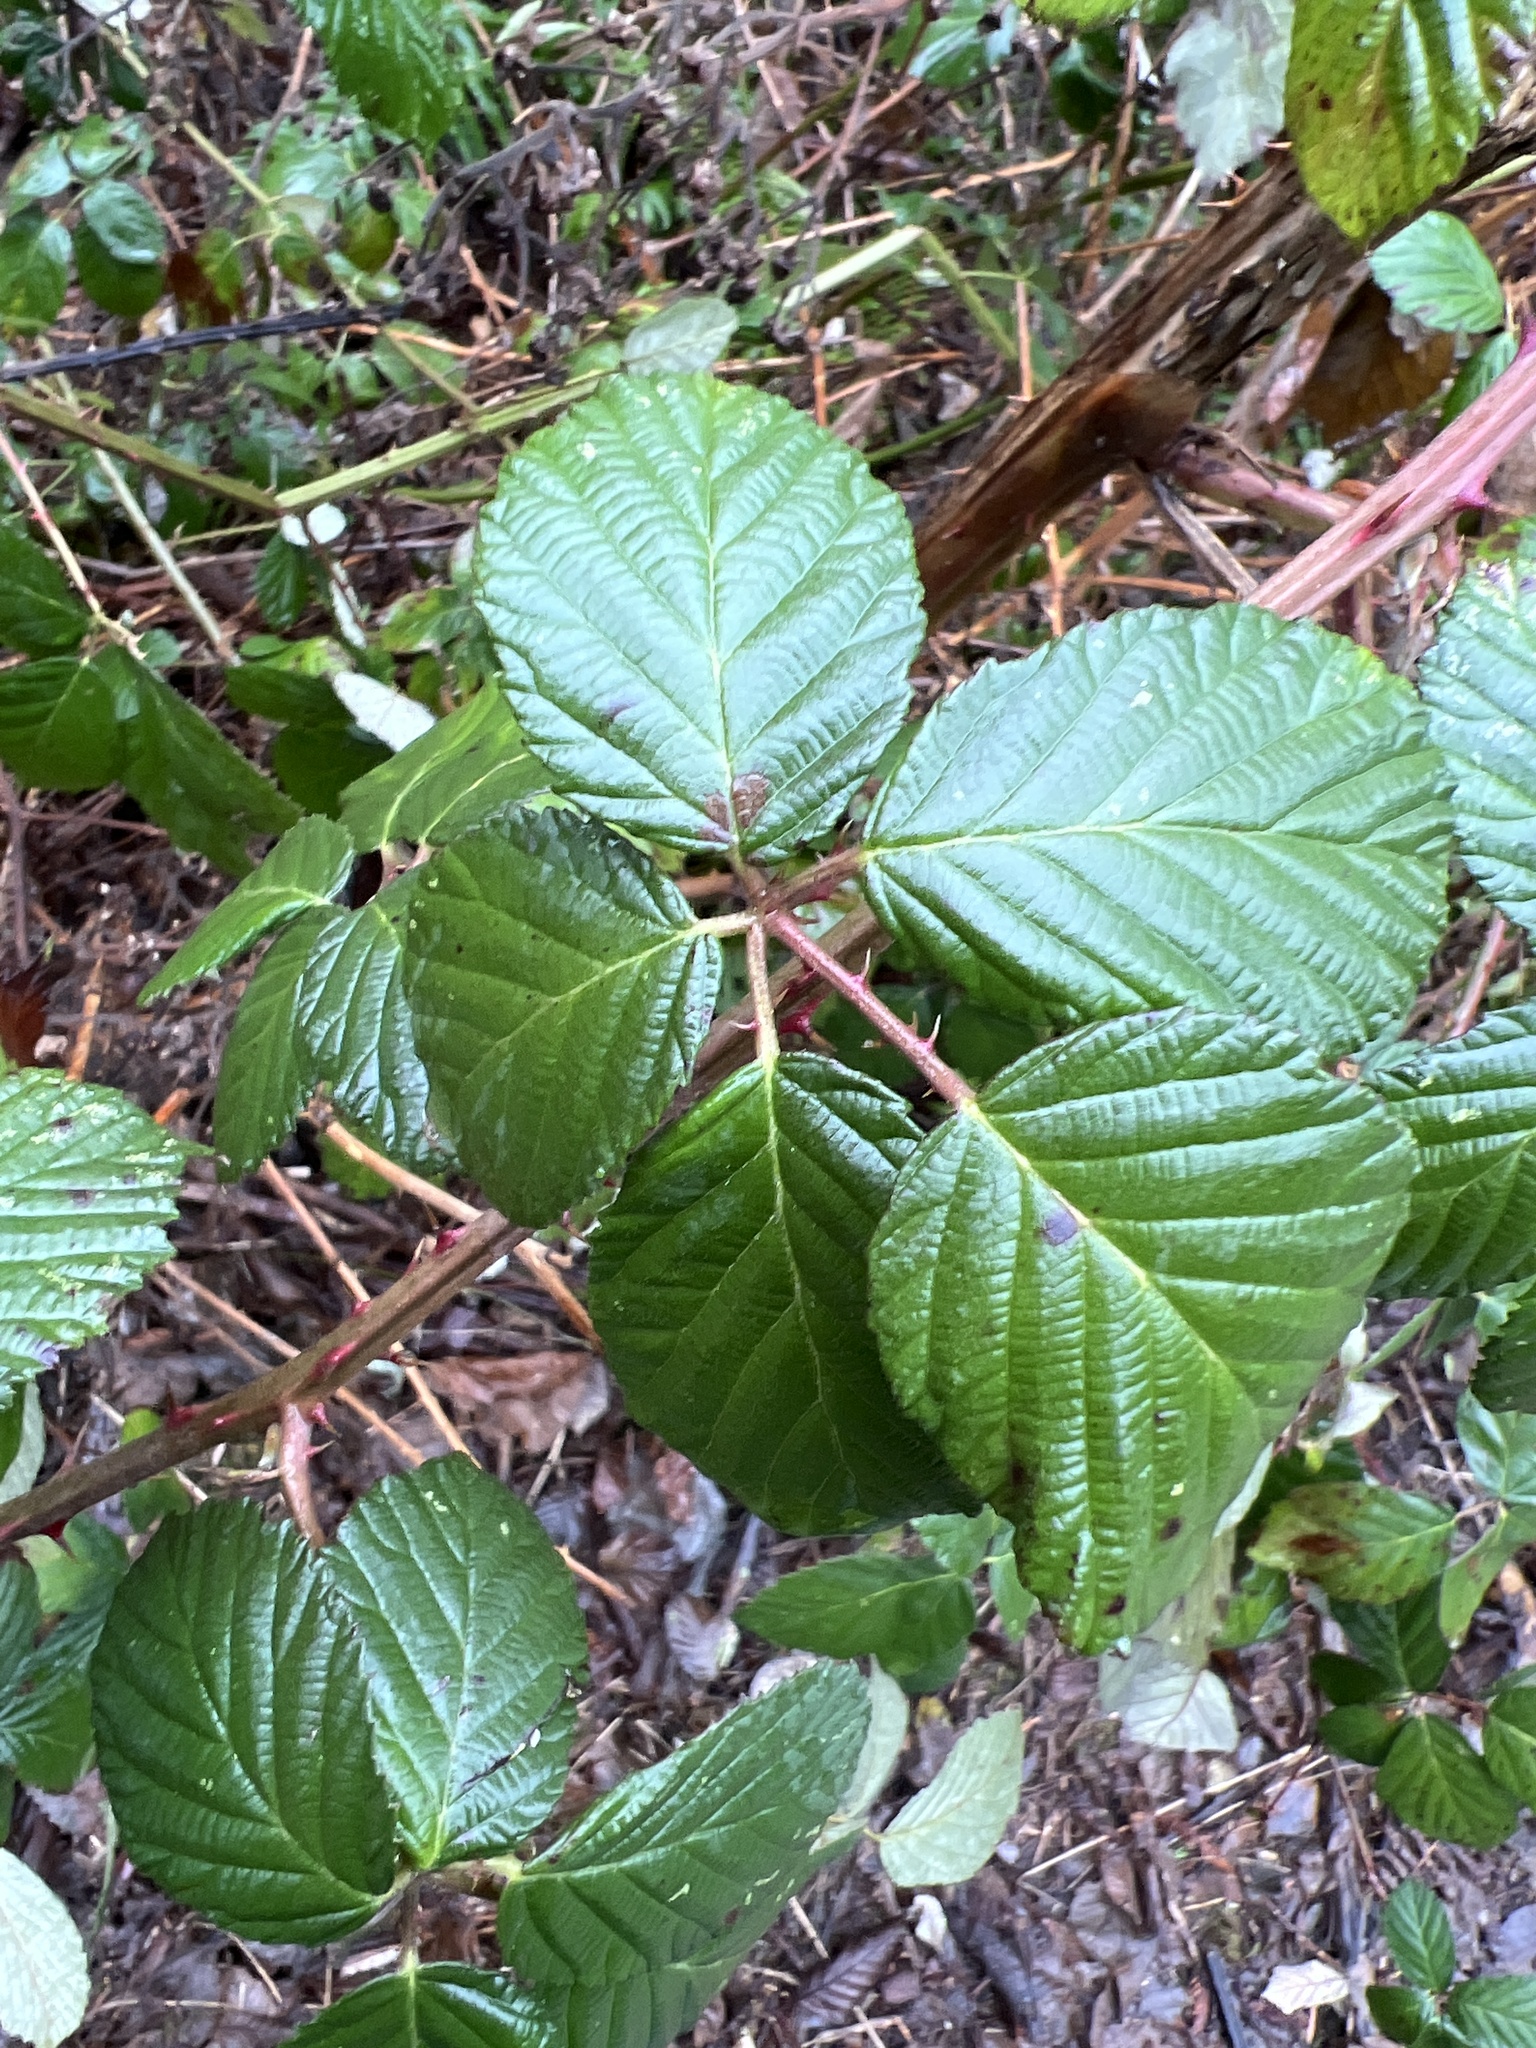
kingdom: Plantae
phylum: Tracheophyta
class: Magnoliopsida
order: Rosales
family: Rosaceae
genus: Rubus
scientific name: Rubus bifrons
